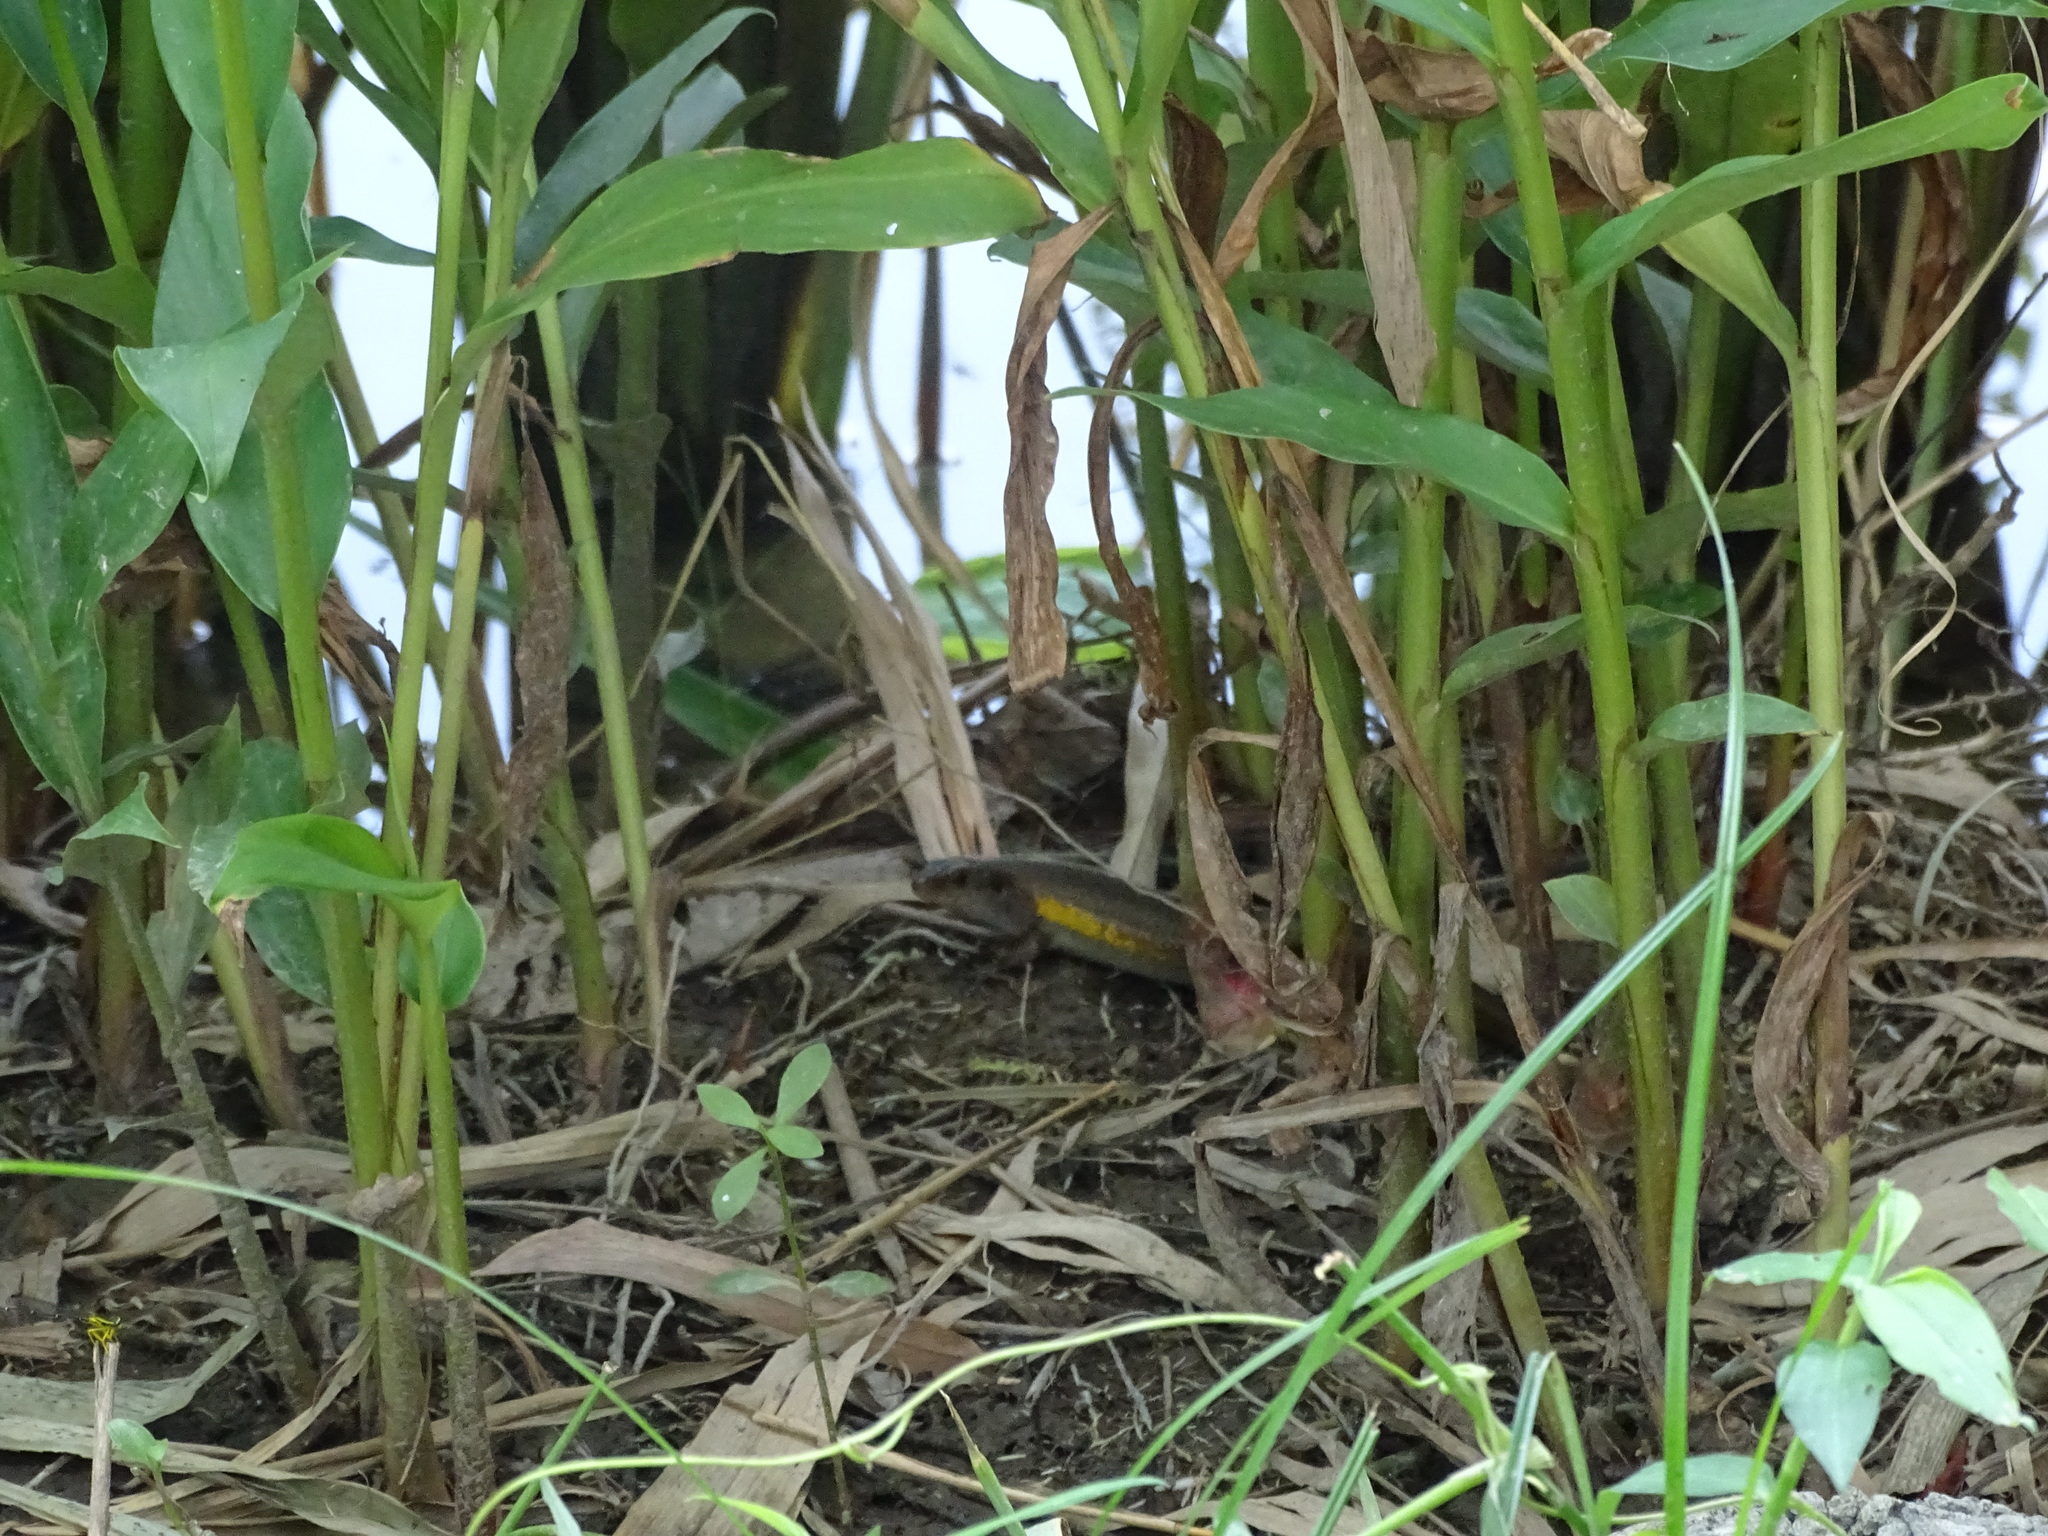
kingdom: Animalia
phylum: Chordata
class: Squamata
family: Scincidae
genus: Eutropis
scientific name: Eutropis multifasciata
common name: Common mabuya
